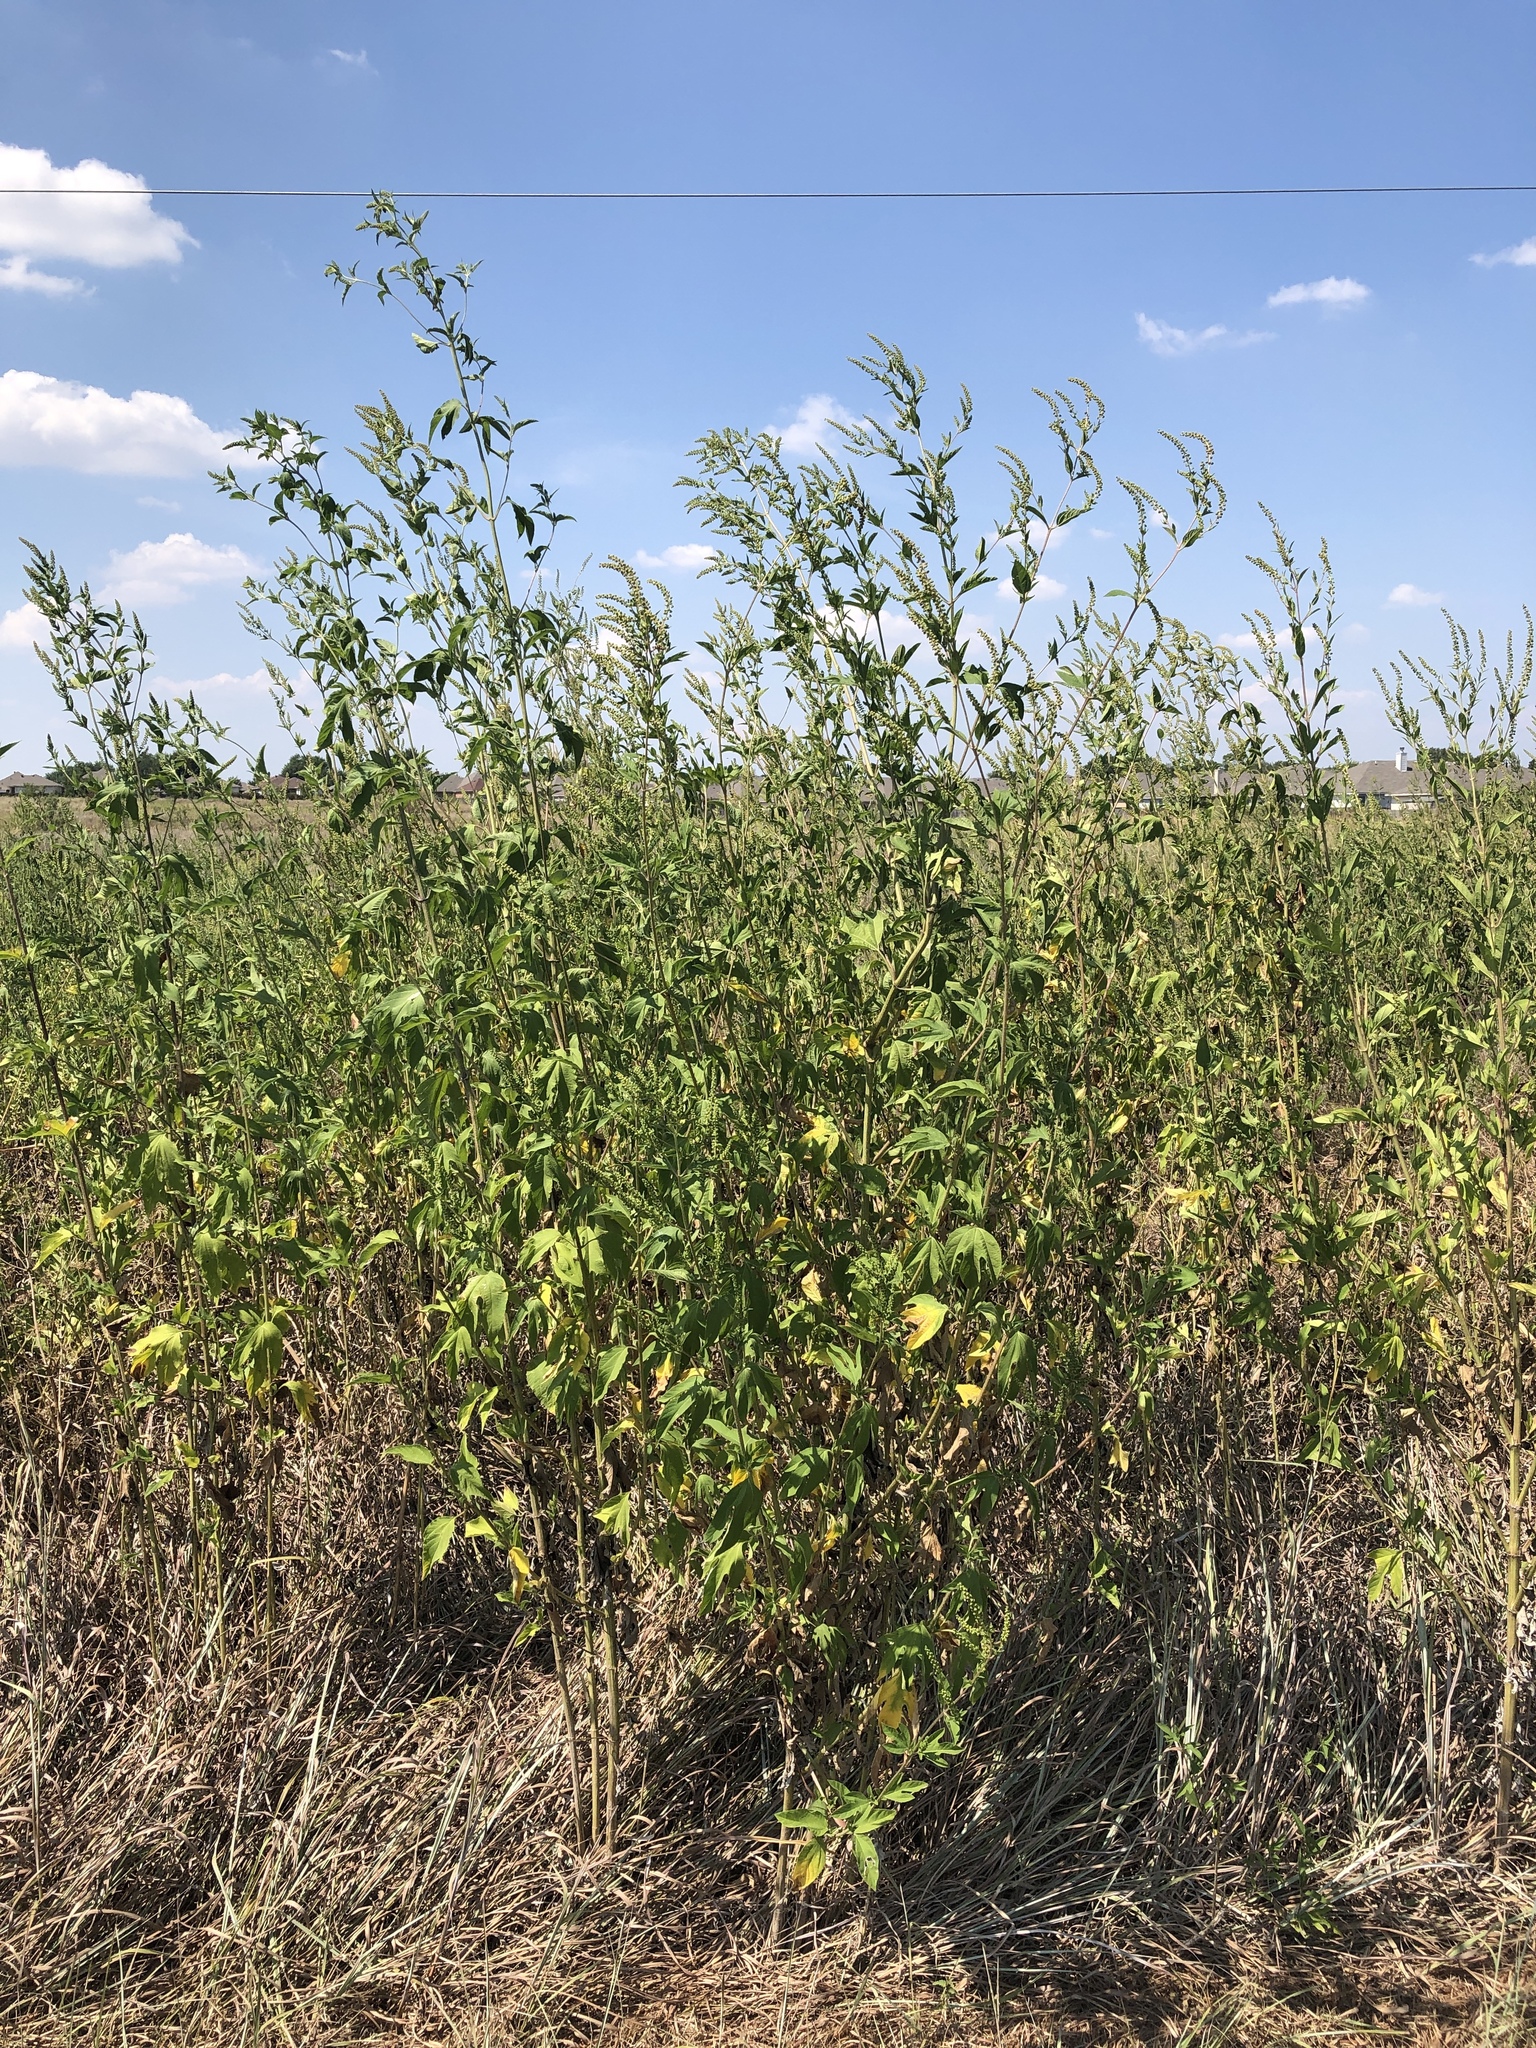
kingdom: Plantae
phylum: Tracheophyta
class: Magnoliopsida
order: Asterales
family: Asteraceae
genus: Ambrosia
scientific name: Ambrosia trifida
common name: Giant ragweed
